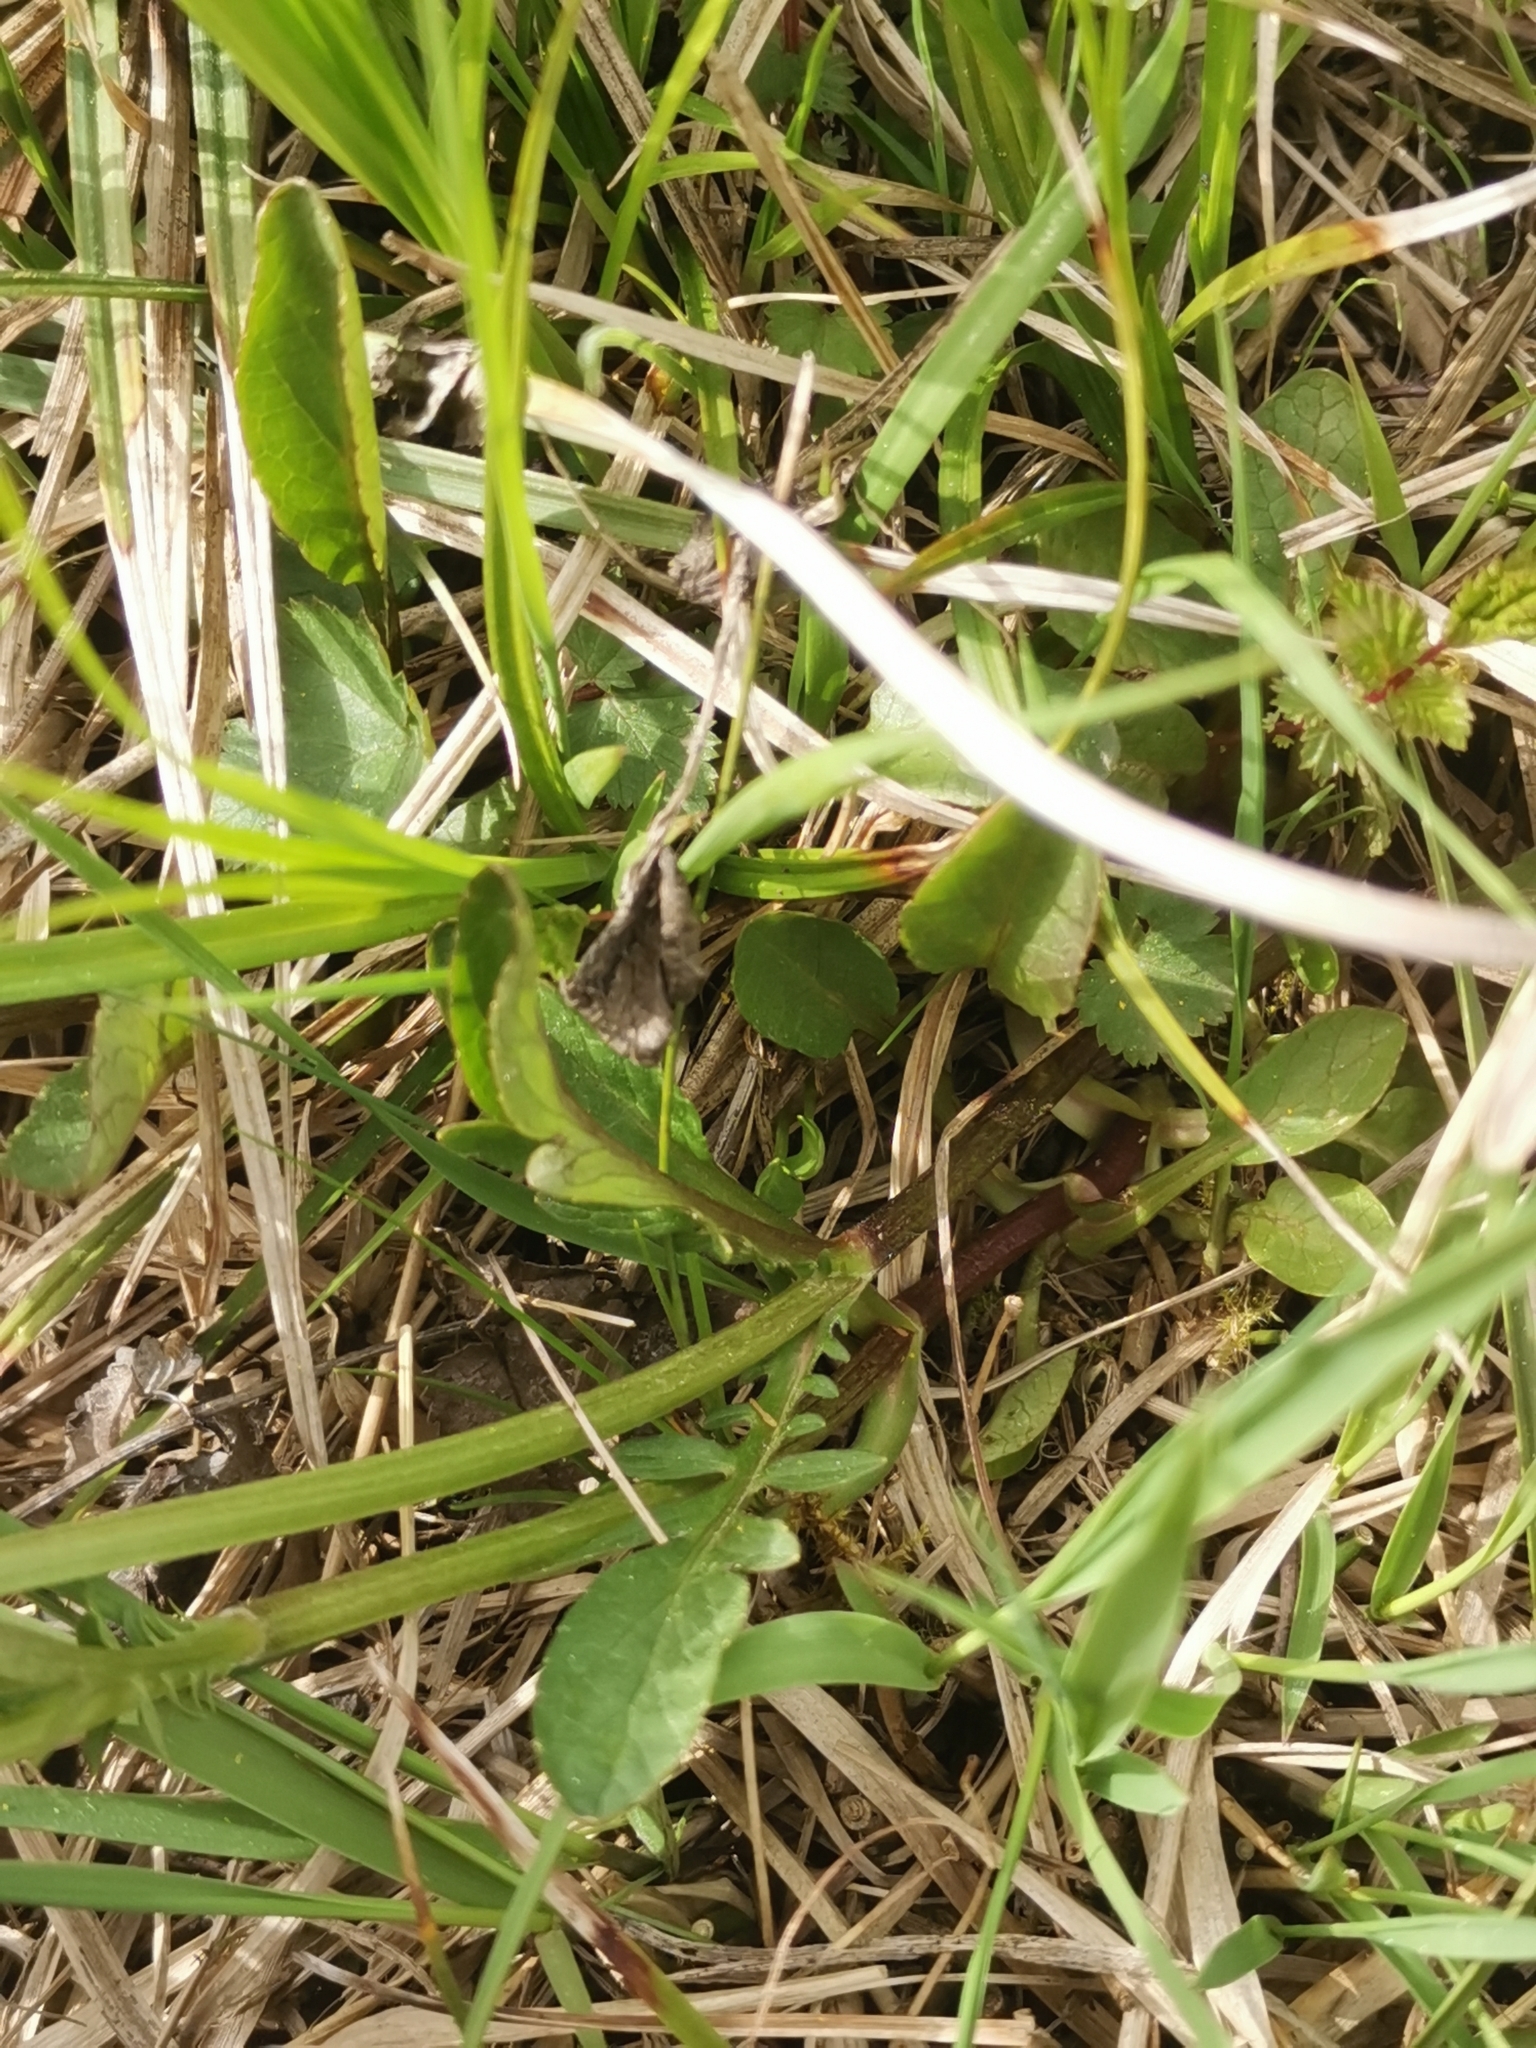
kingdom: Plantae
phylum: Tracheophyta
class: Magnoliopsida
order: Dipsacales
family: Caprifoliaceae
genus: Valeriana
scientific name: Valeriana dioica
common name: Marsh valerian
